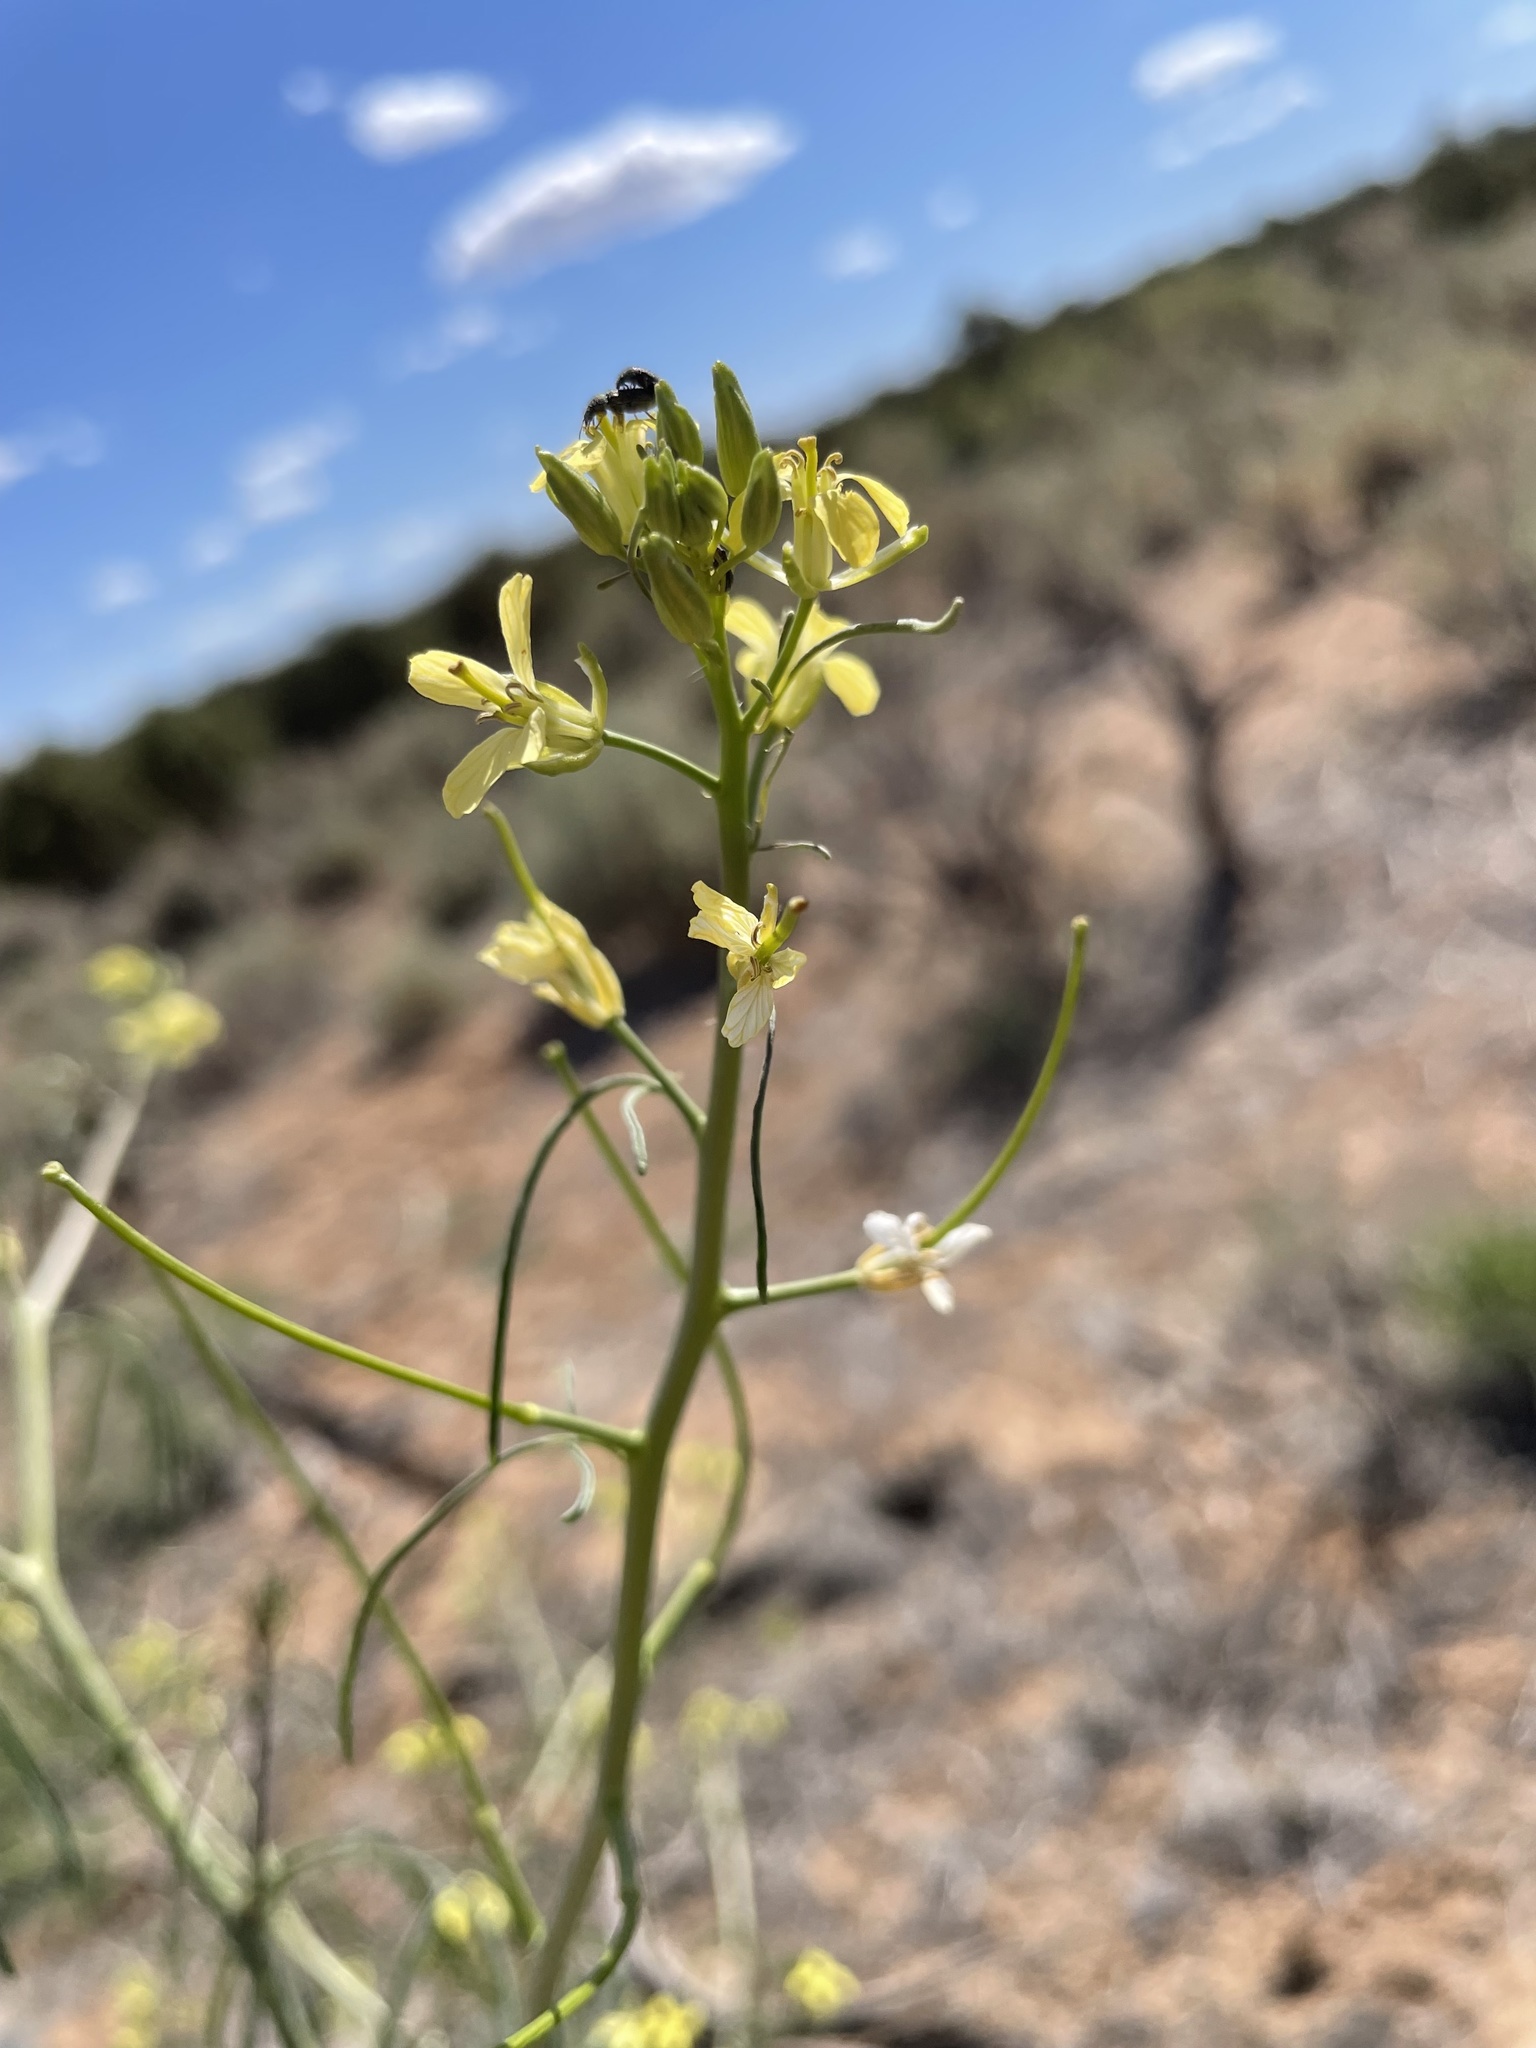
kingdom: Plantae
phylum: Tracheophyta
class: Magnoliopsida
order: Brassicales
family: Brassicaceae
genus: Sisymbrium
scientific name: Sisymbrium altissimum
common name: Tall rocket
